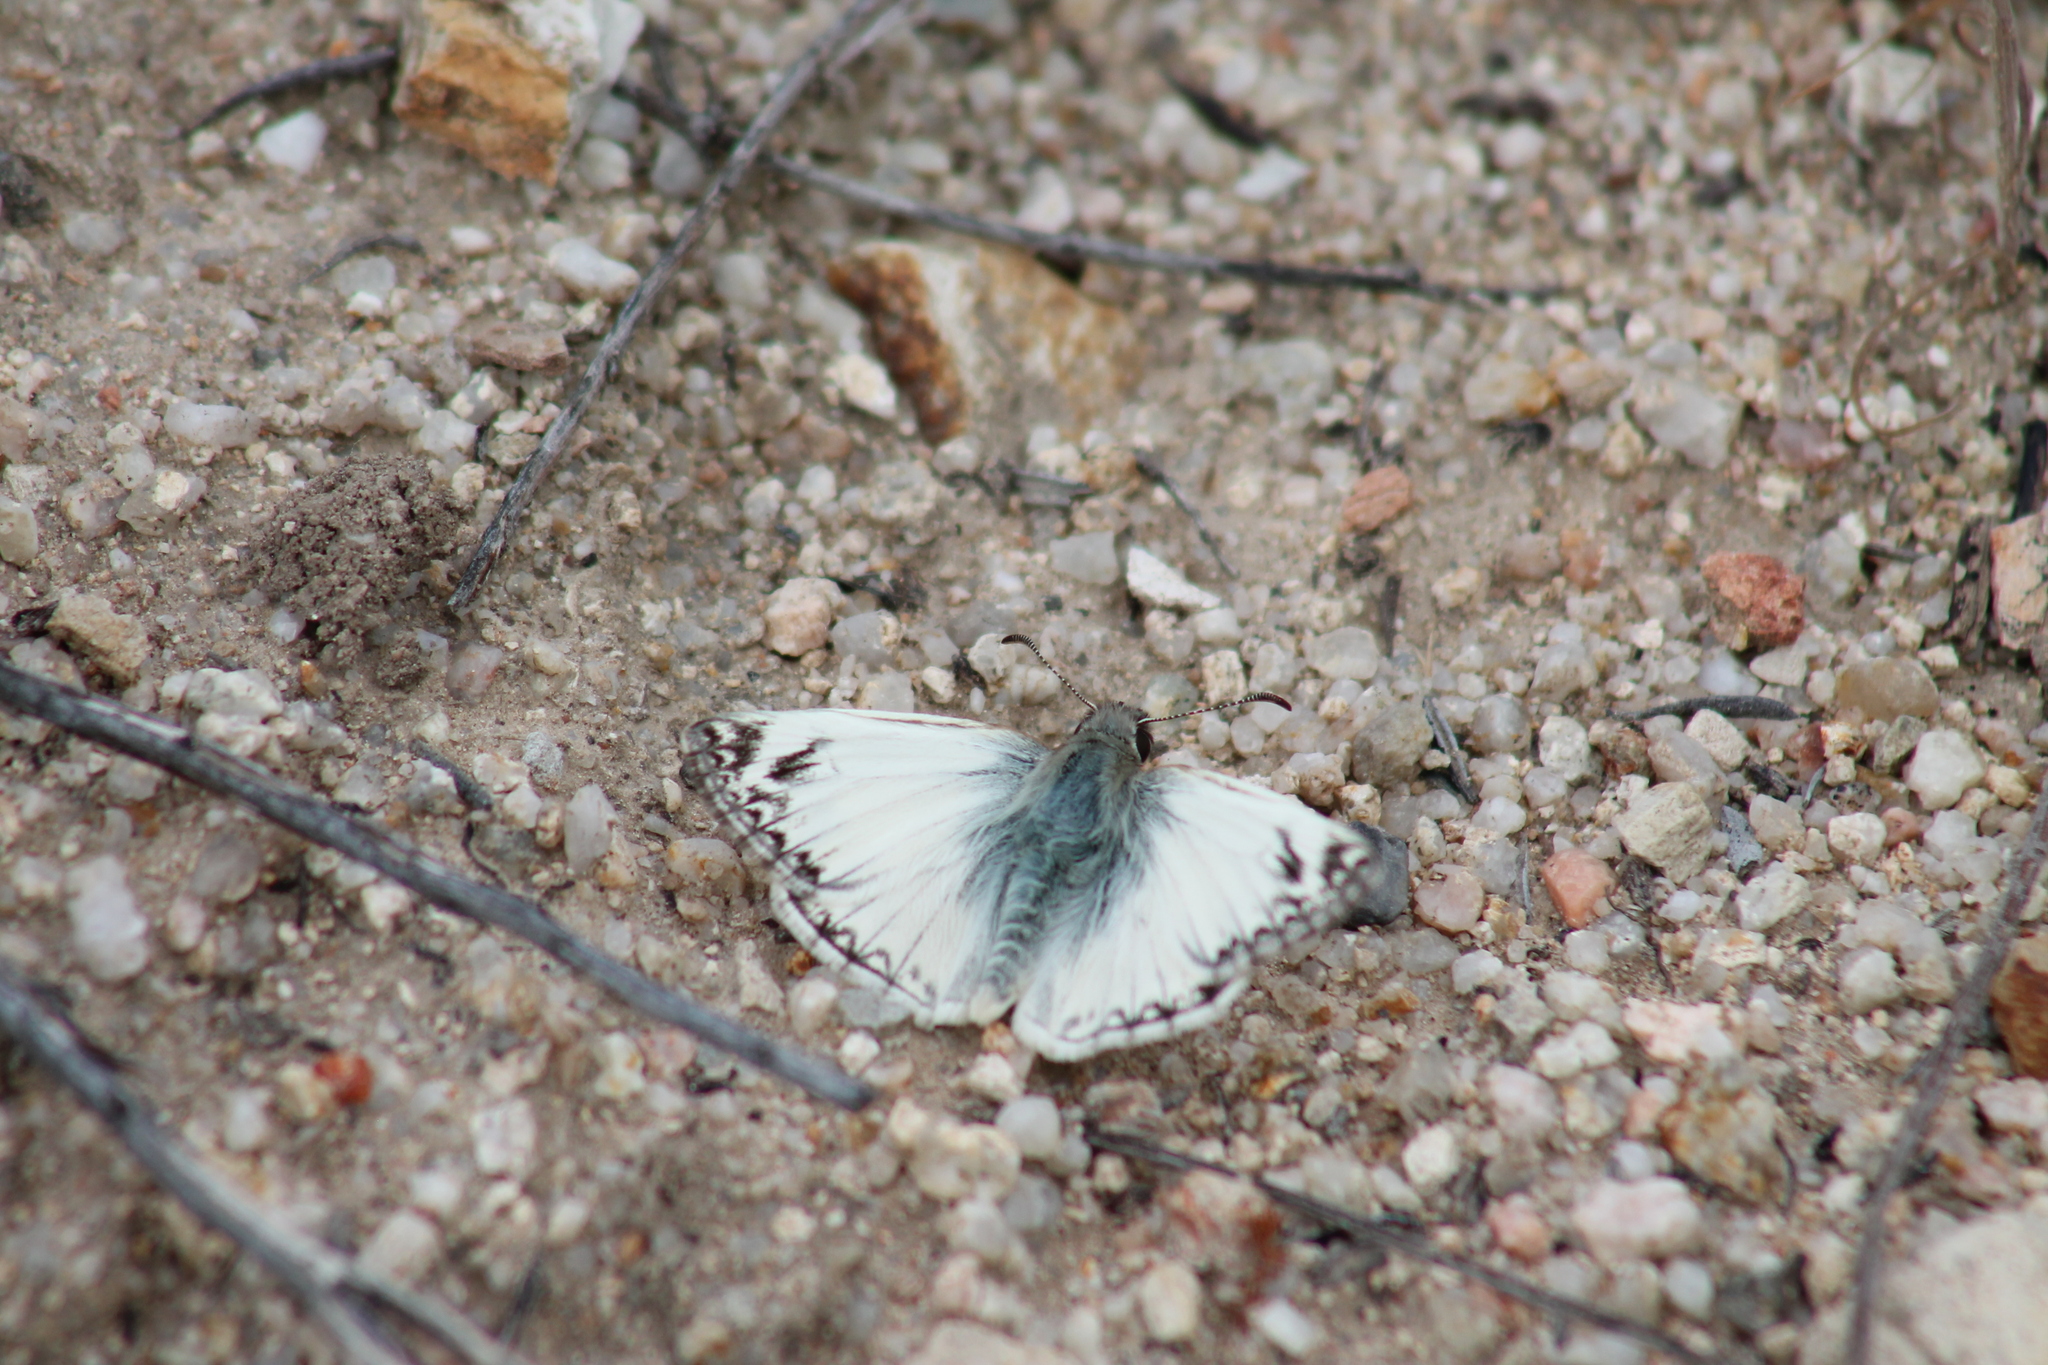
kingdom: Animalia
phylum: Arthropoda
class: Insecta
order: Lepidoptera
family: Hesperiidae
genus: Heliopetes
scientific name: Heliopetes ericetorum
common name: Northern white-skipper
